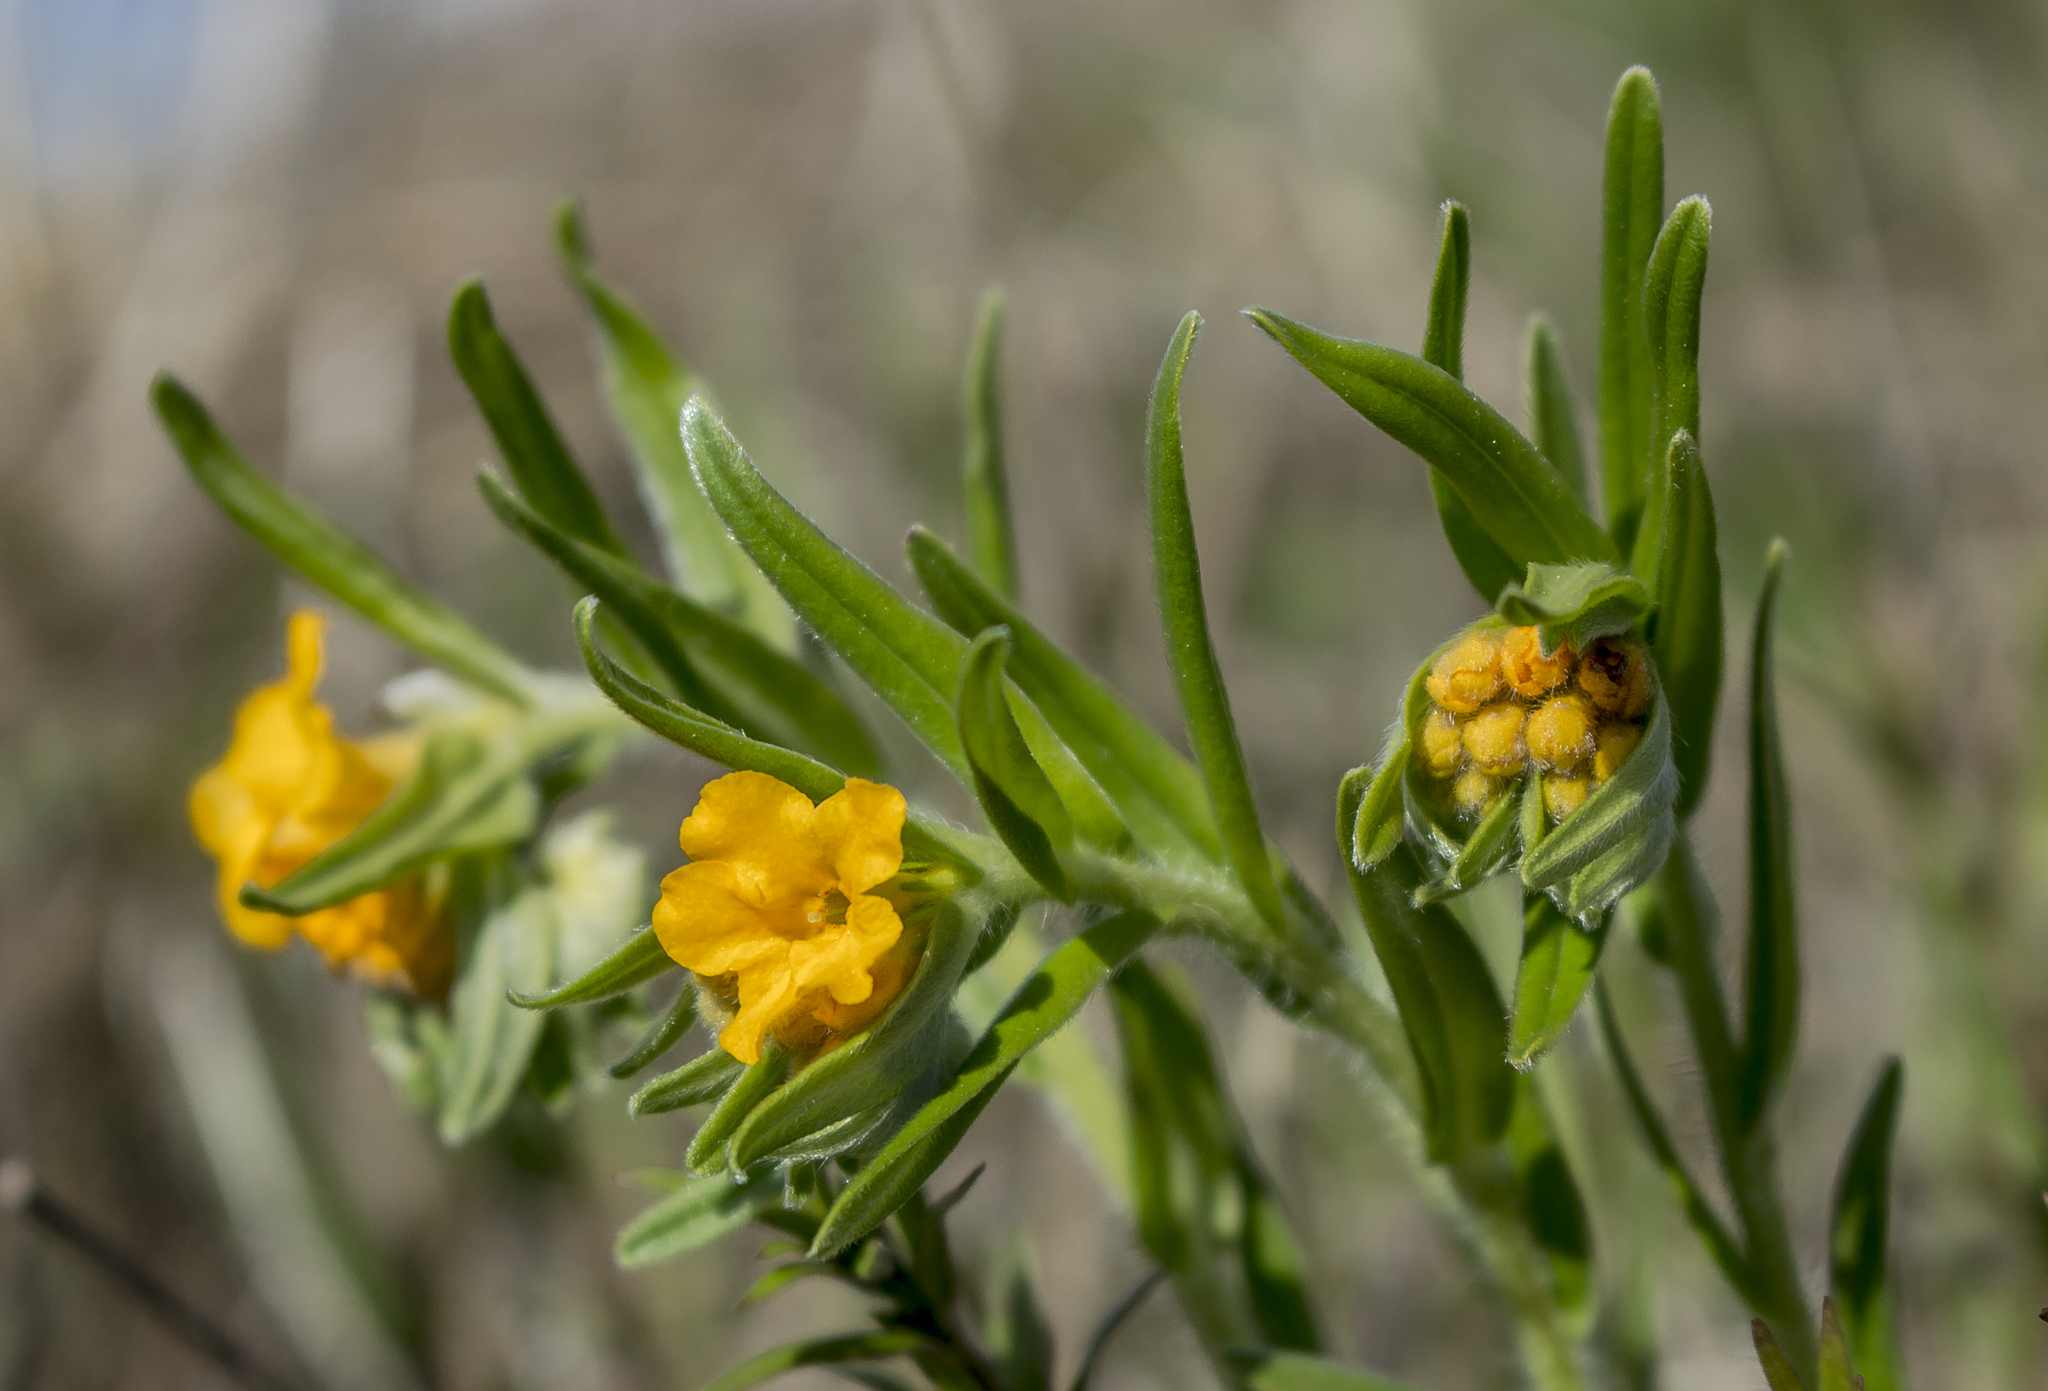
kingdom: Plantae
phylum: Tracheophyta
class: Magnoliopsida
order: Boraginales
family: Boraginaceae
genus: Lithospermum
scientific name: Lithospermum canescens
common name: Hoary puccoon
